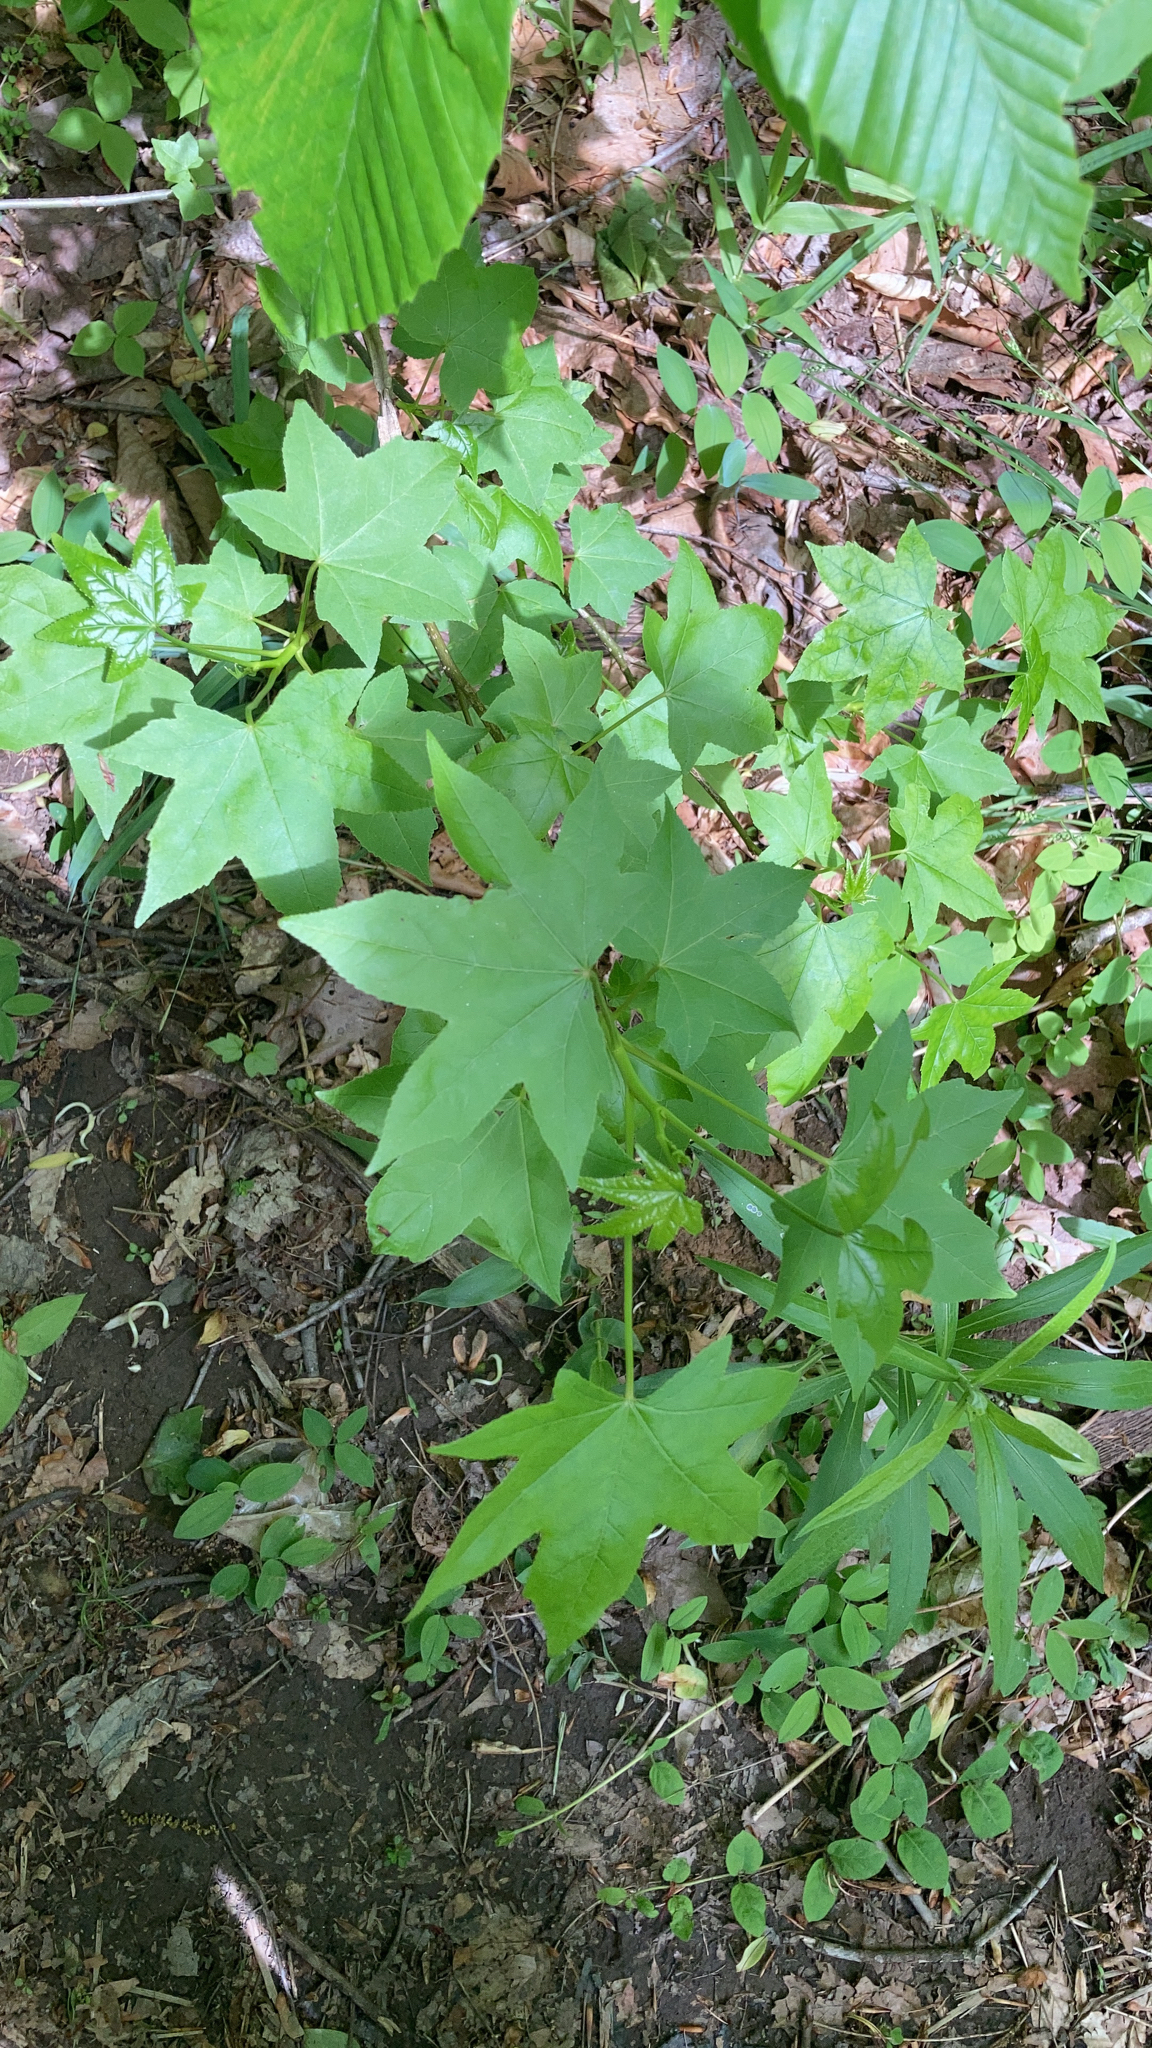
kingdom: Plantae
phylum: Tracheophyta
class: Magnoliopsida
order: Saxifragales
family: Altingiaceae
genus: Liquidambar
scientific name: Liquidambar styraciflua
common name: Sweet gum
